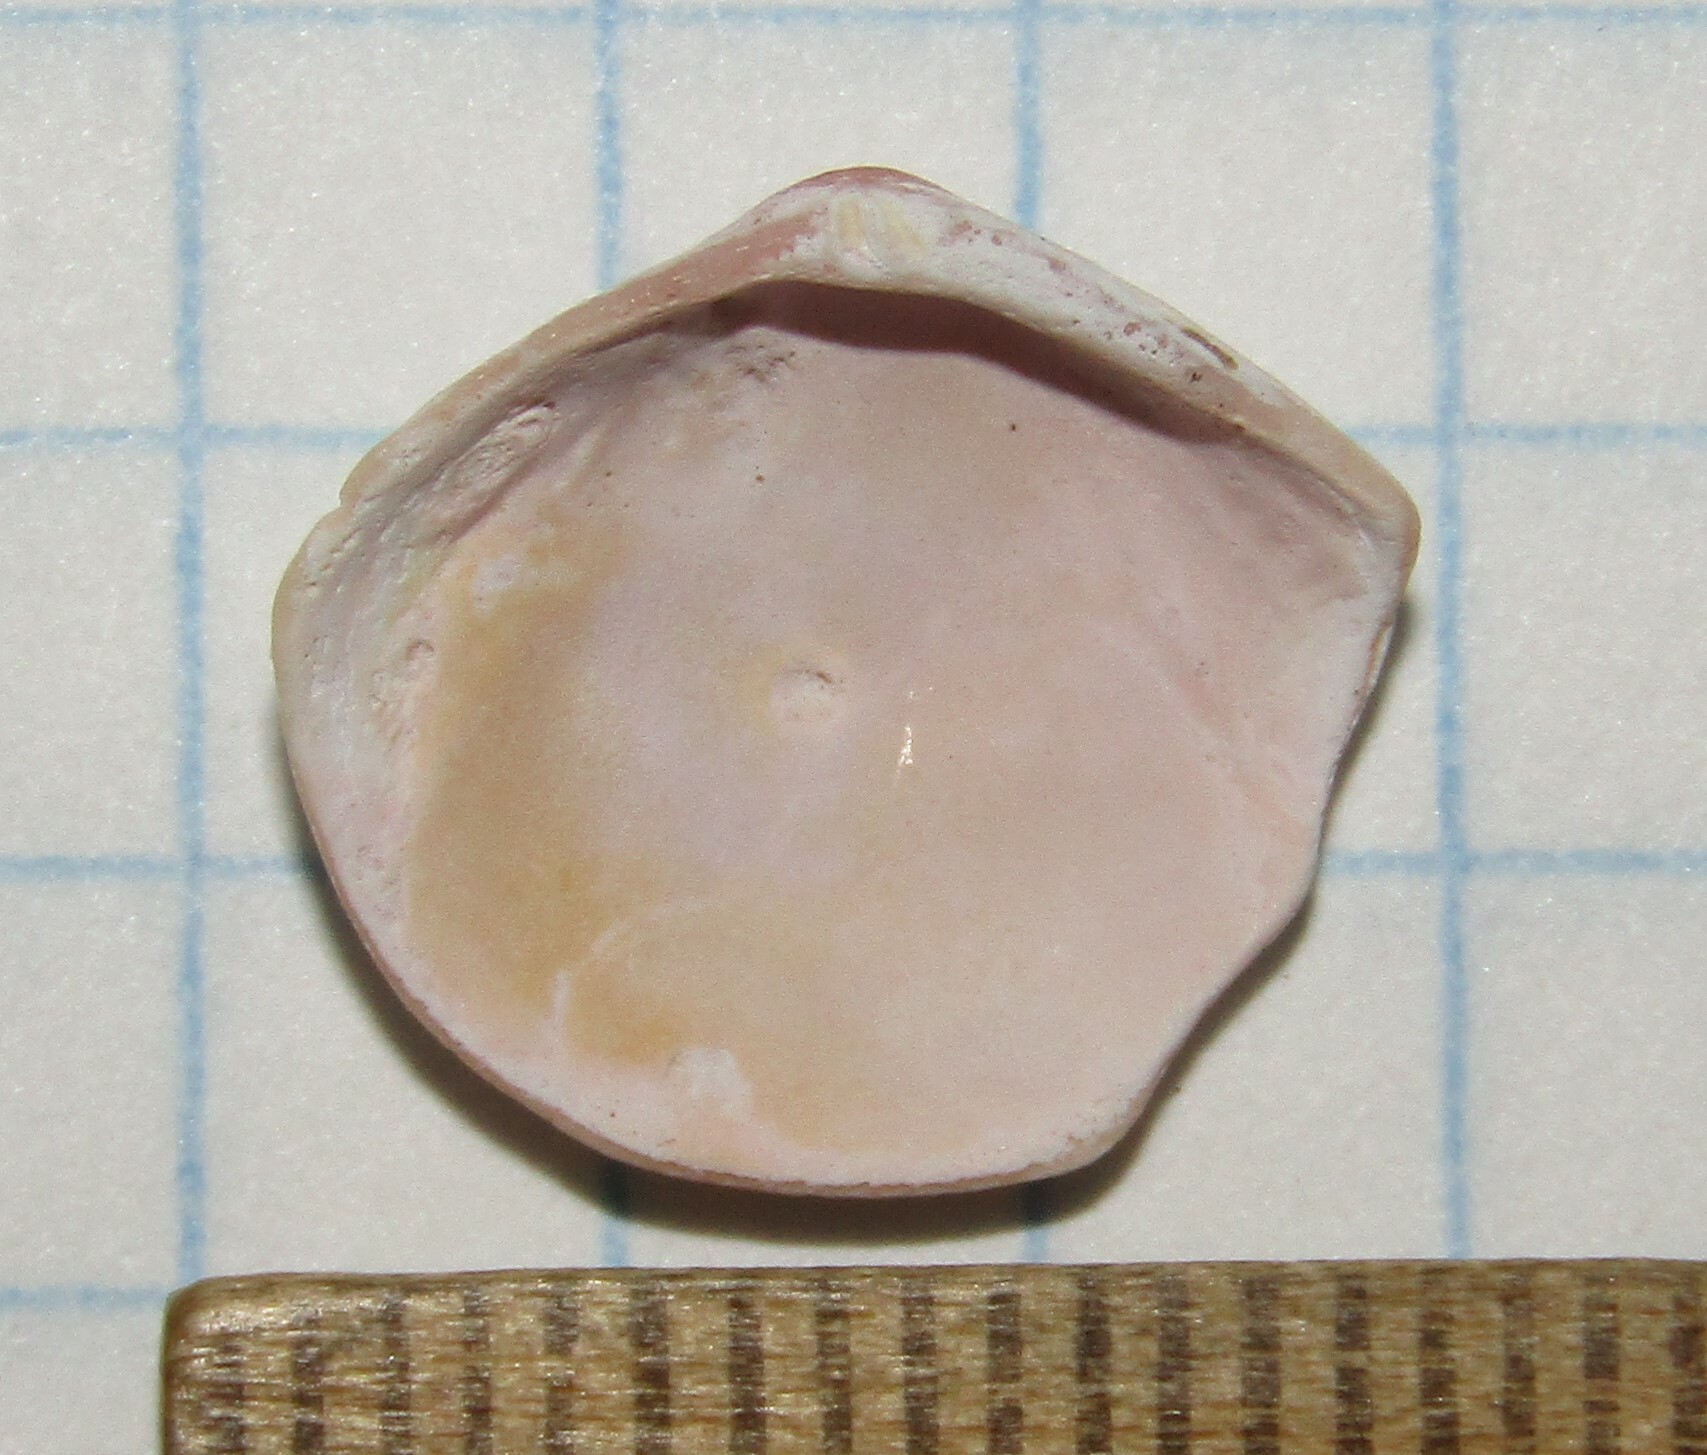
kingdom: Animalia
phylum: Mollusca
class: Bivalvia
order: Cardiida
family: Tellinidae
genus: Macoma
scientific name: Macoma balthica
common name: Baltic tellin
